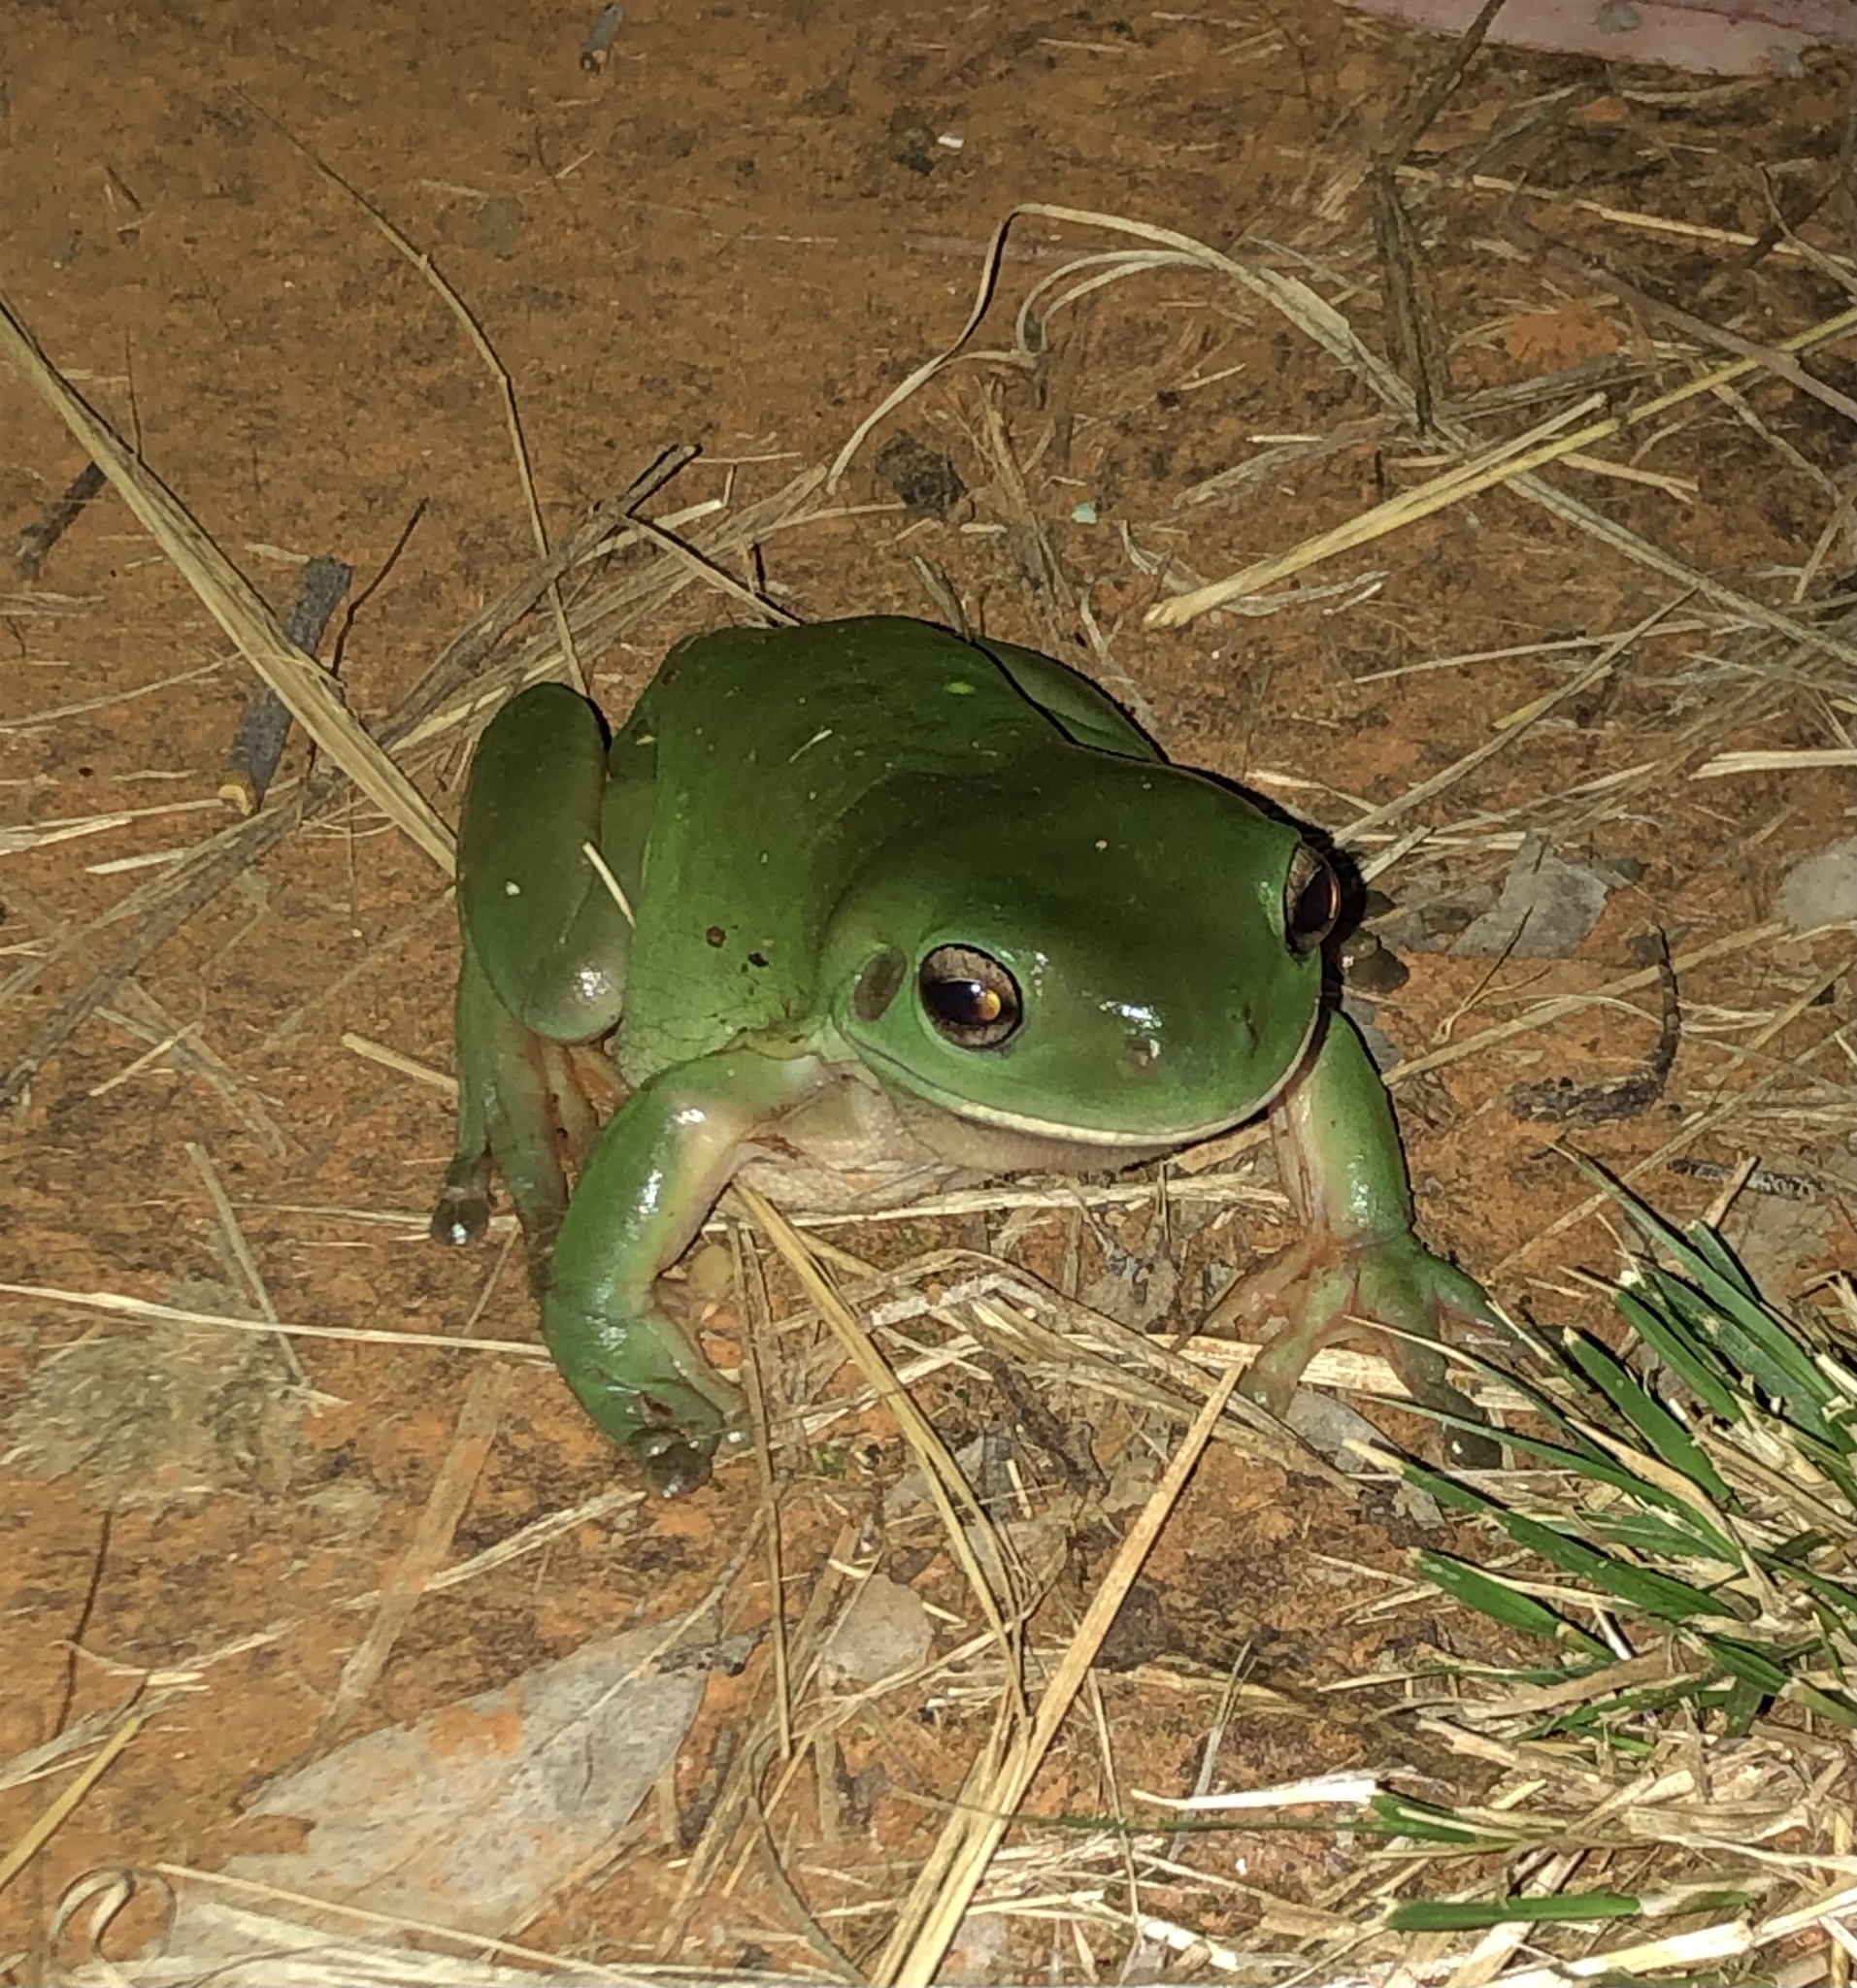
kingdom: Animalia
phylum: Chordata
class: Amphibia
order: Anura
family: Pelodryadidae
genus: Ranoidea
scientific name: Ranoidea caerulea
